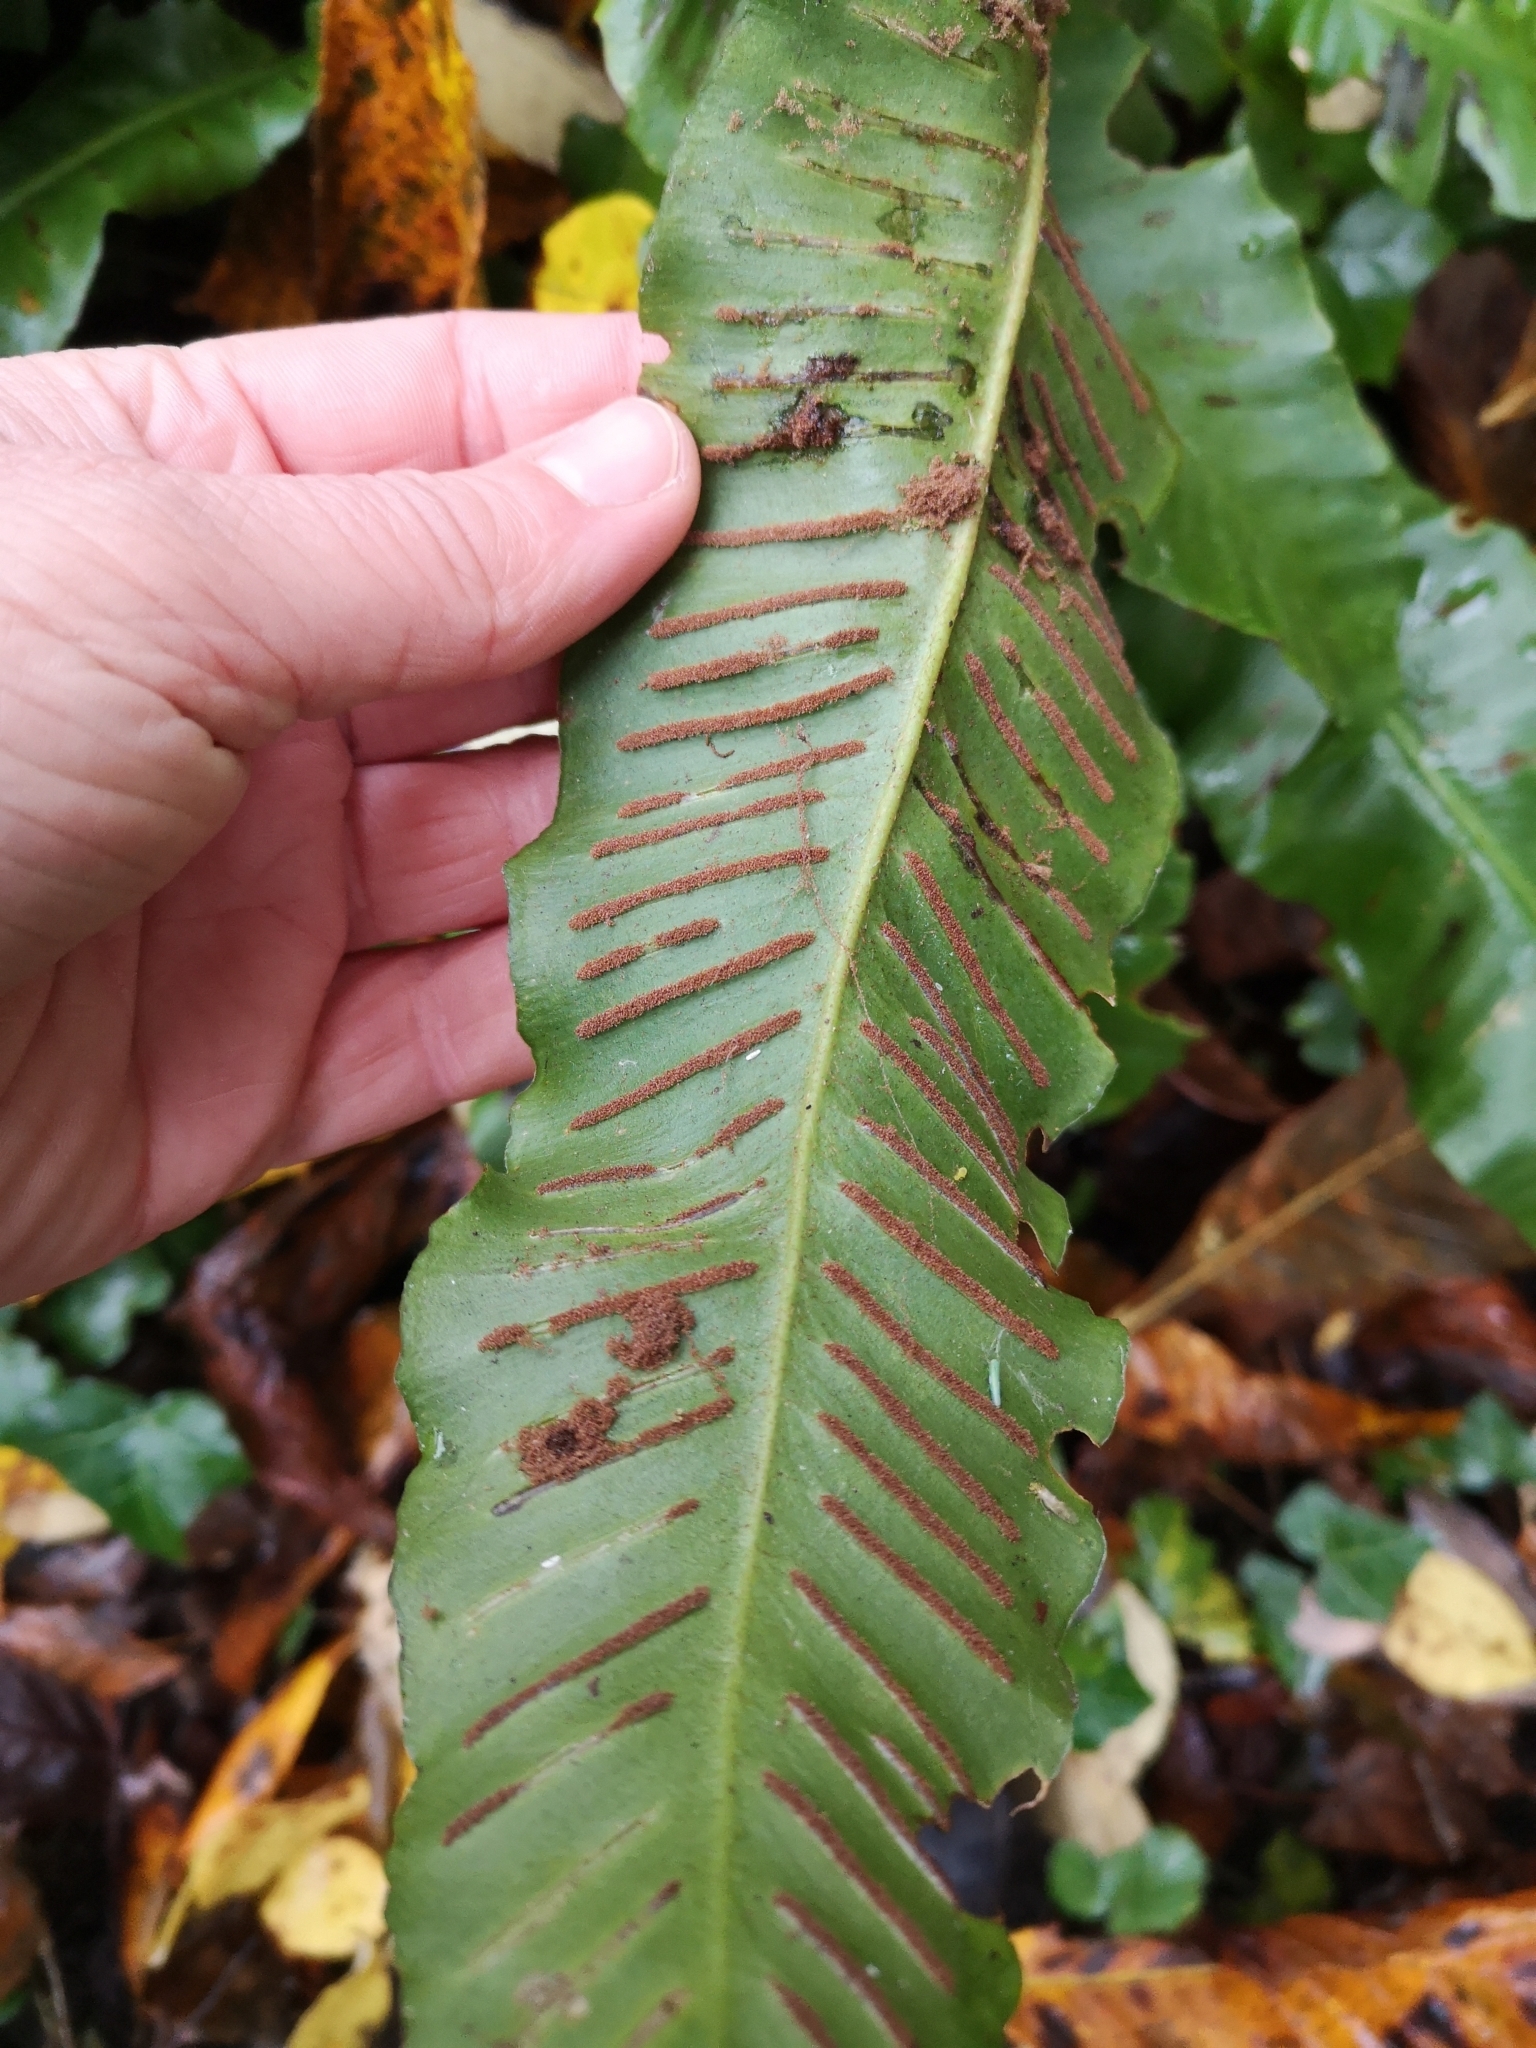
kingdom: Plantae
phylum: Tracheophyta
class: Polypodiopsida
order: Polypodiales
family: Aspleniaceae
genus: Asplenium
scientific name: Asplenium scolopendrium
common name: Hart's-tongue fern
